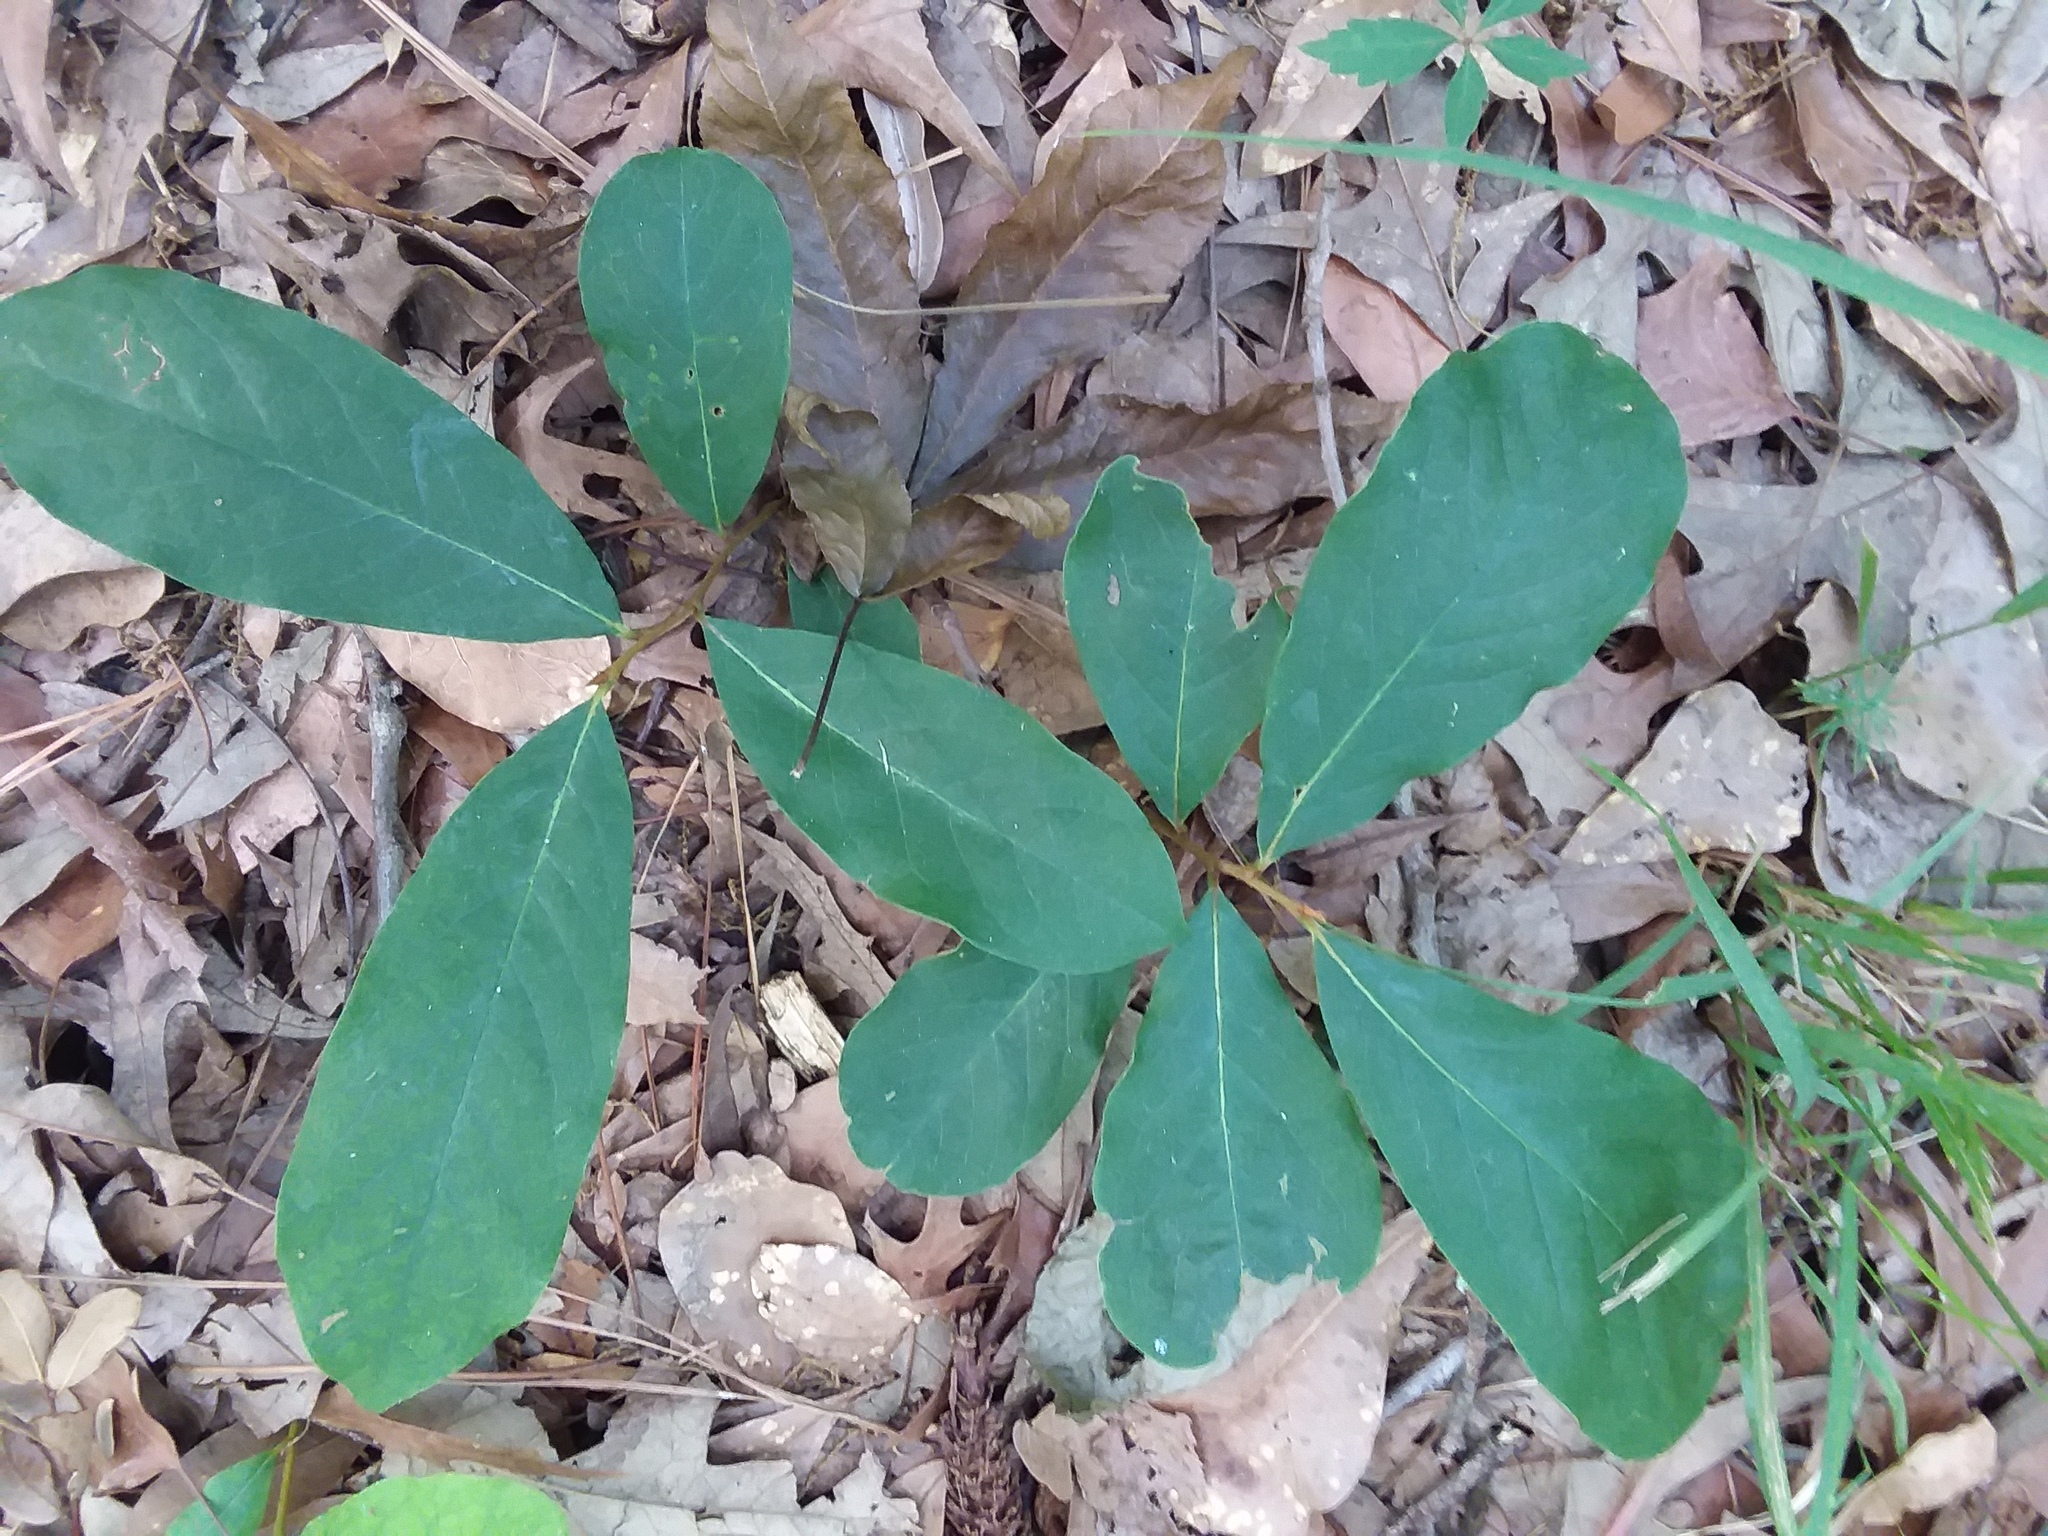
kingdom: Plantae
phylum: Tracheophyta
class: Magnoliopsida
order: Magnoliales
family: Annonaceae
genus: Asimina
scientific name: Asimina parviflora
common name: Dwarf pawpaw
